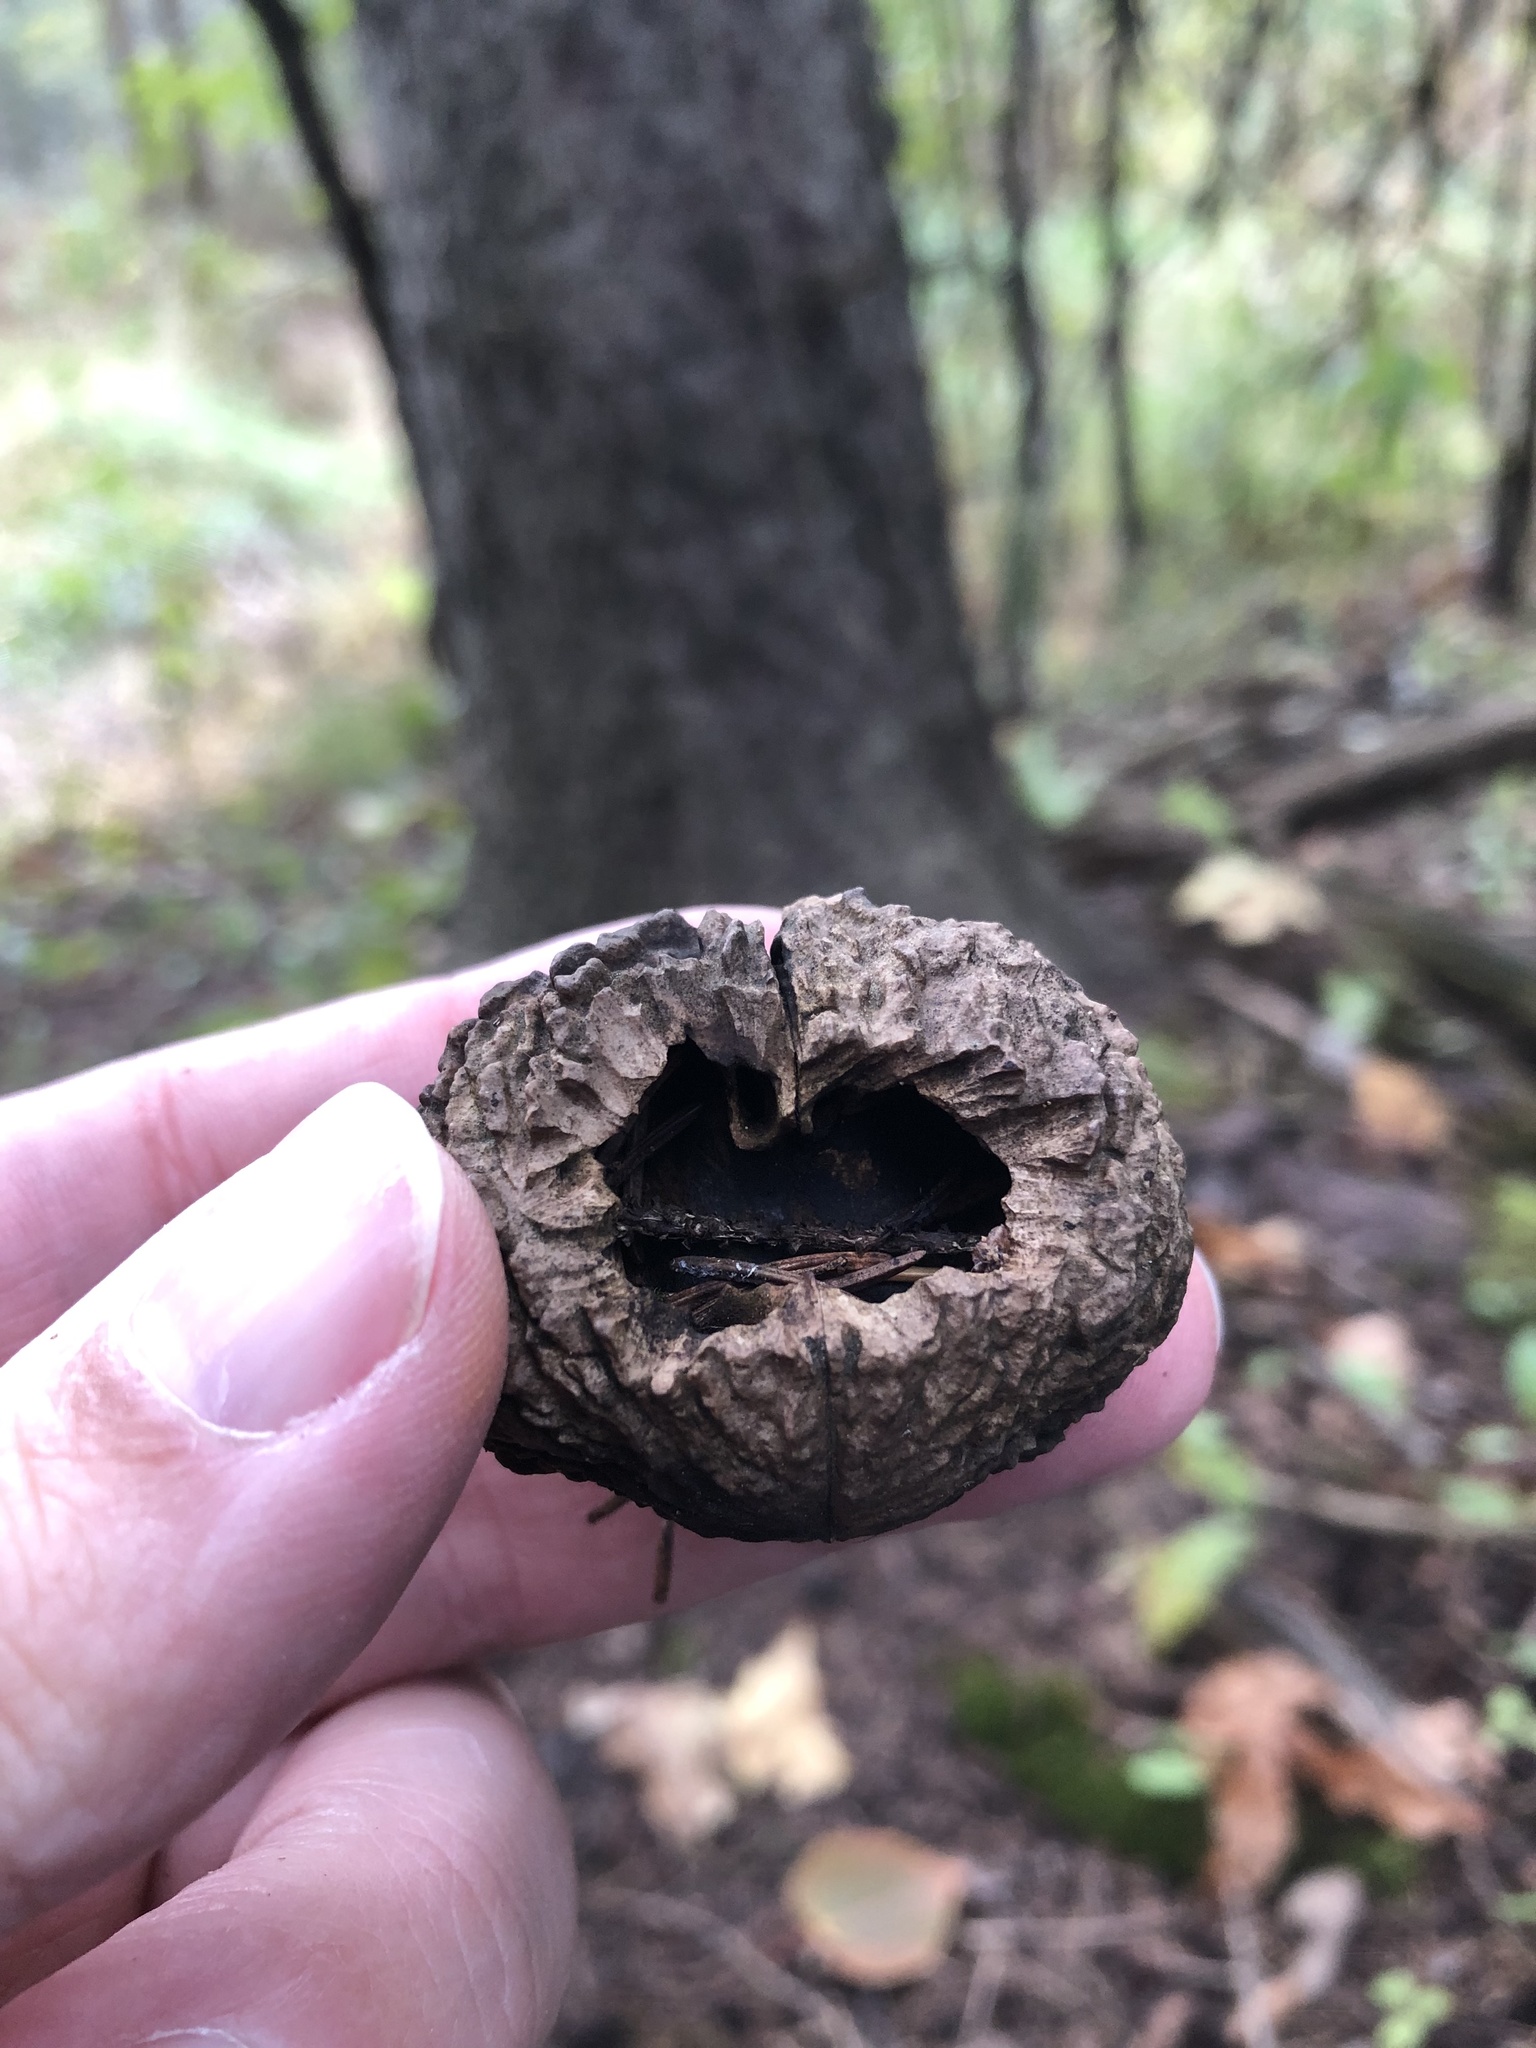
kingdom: Plantae
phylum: Tracheophyta
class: Magnoliopsida
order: Fagales
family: Juglandaceae
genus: Juglans
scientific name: Juglans nigra
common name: Black walnut
